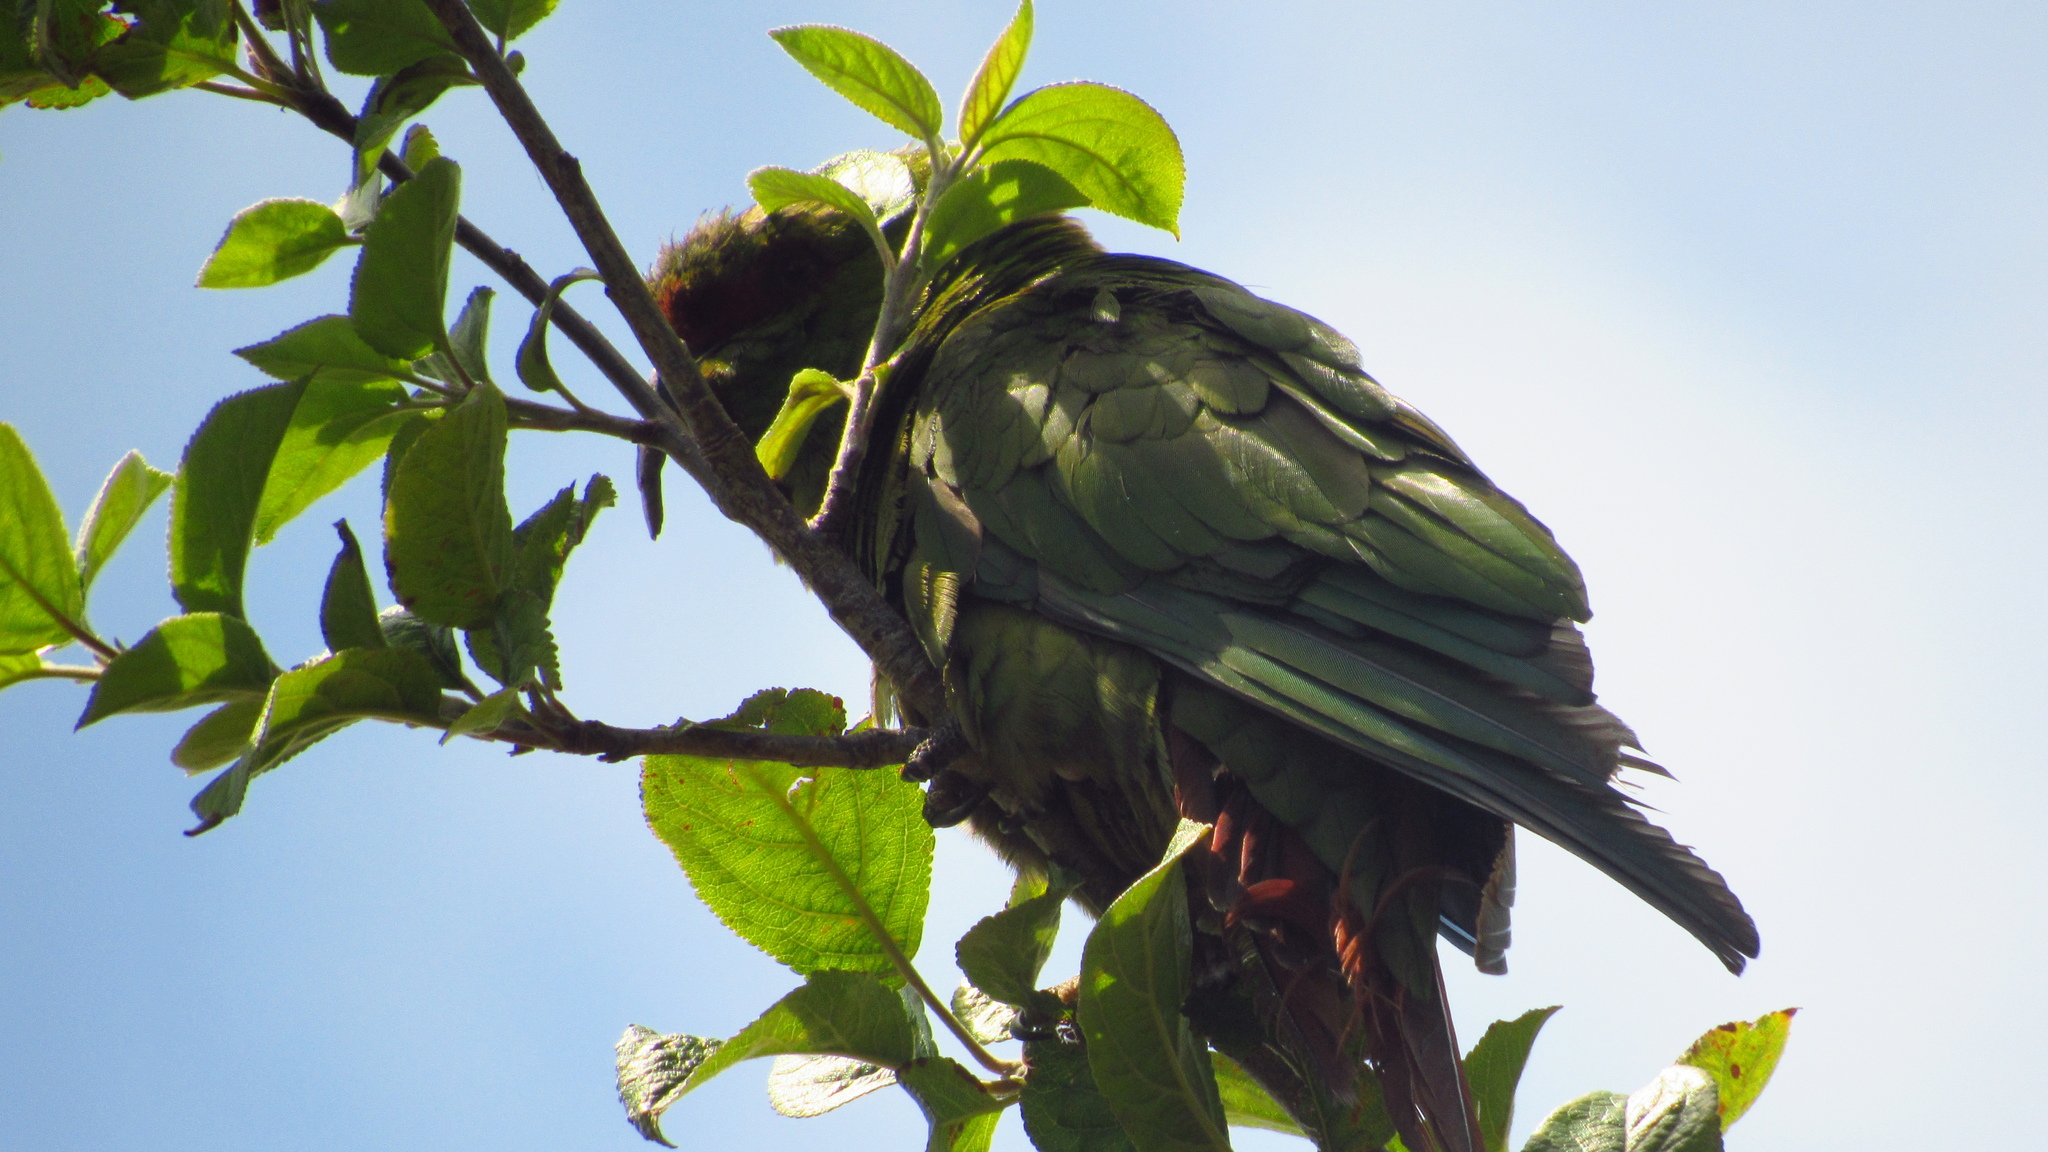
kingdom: Animalia
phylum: Chordata
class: Aves
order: Psittaciformes
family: Psittacidae
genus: Enicognathus
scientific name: Enicognathus leptorhynchus
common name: Slender-billed parakeet
